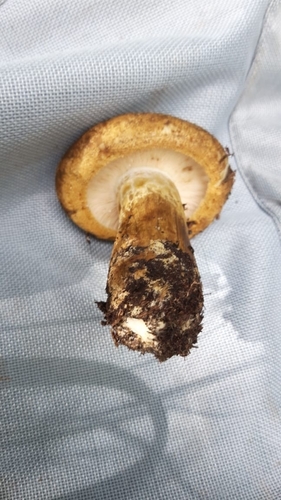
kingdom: Fungi
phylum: Basidiomycota
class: Agaricomycetes
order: Russulales
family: Russulaceae
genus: Lactarius
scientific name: Lactarius turpis
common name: Ugly milk-cap
